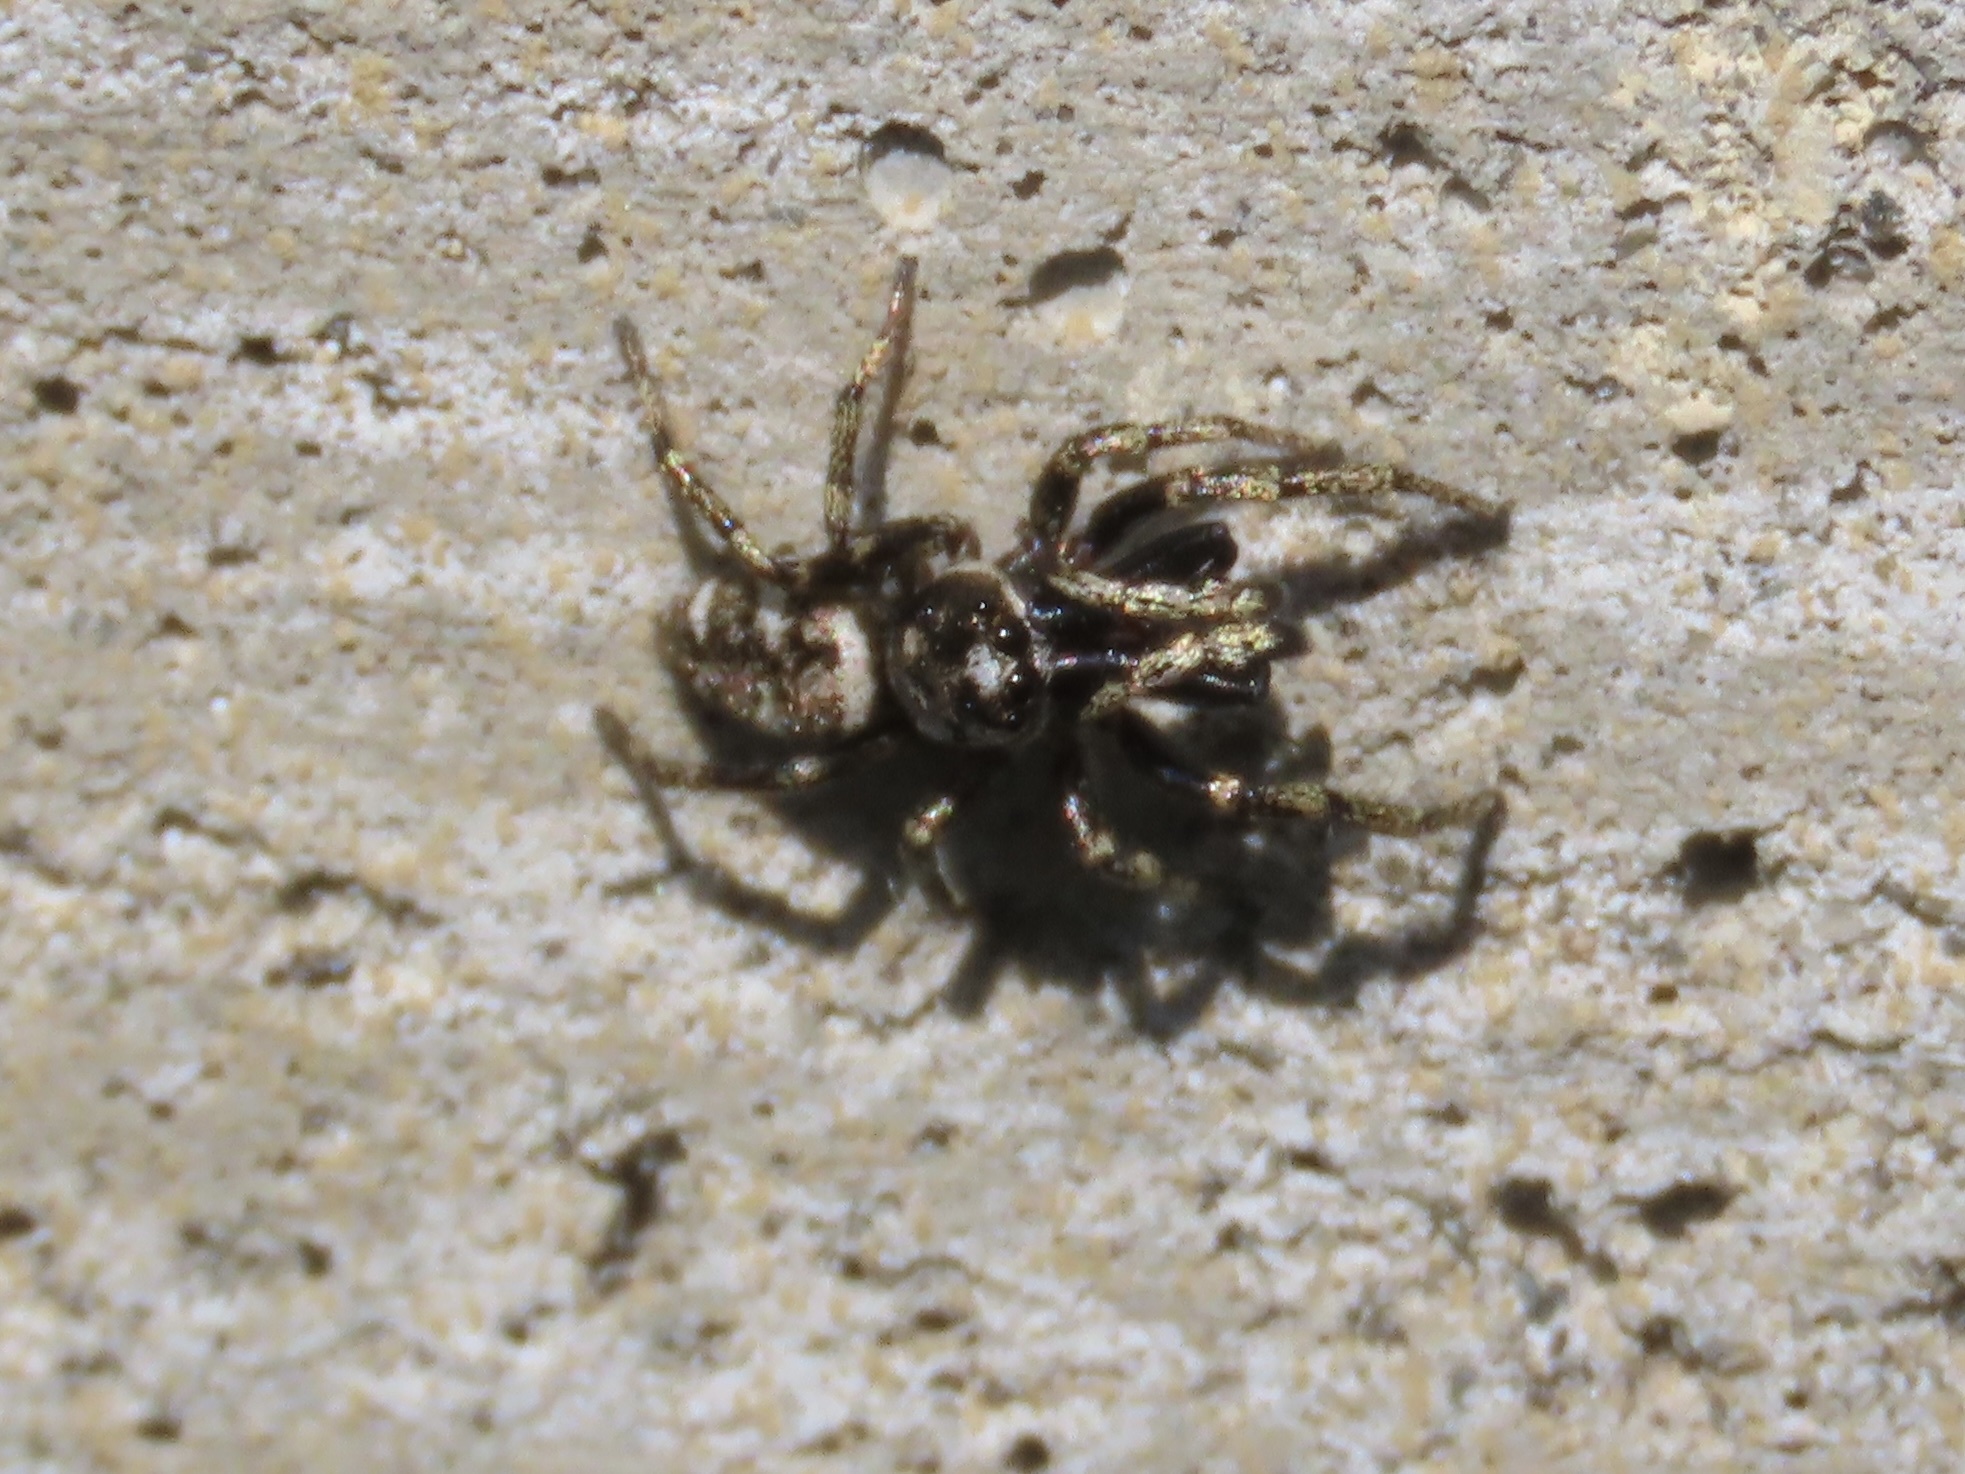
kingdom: Animalia
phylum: Arthropoda
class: Arachnida
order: Araneae
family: Salticidae
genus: Salticus
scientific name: Salticus scenicus
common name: Zebra jumper
